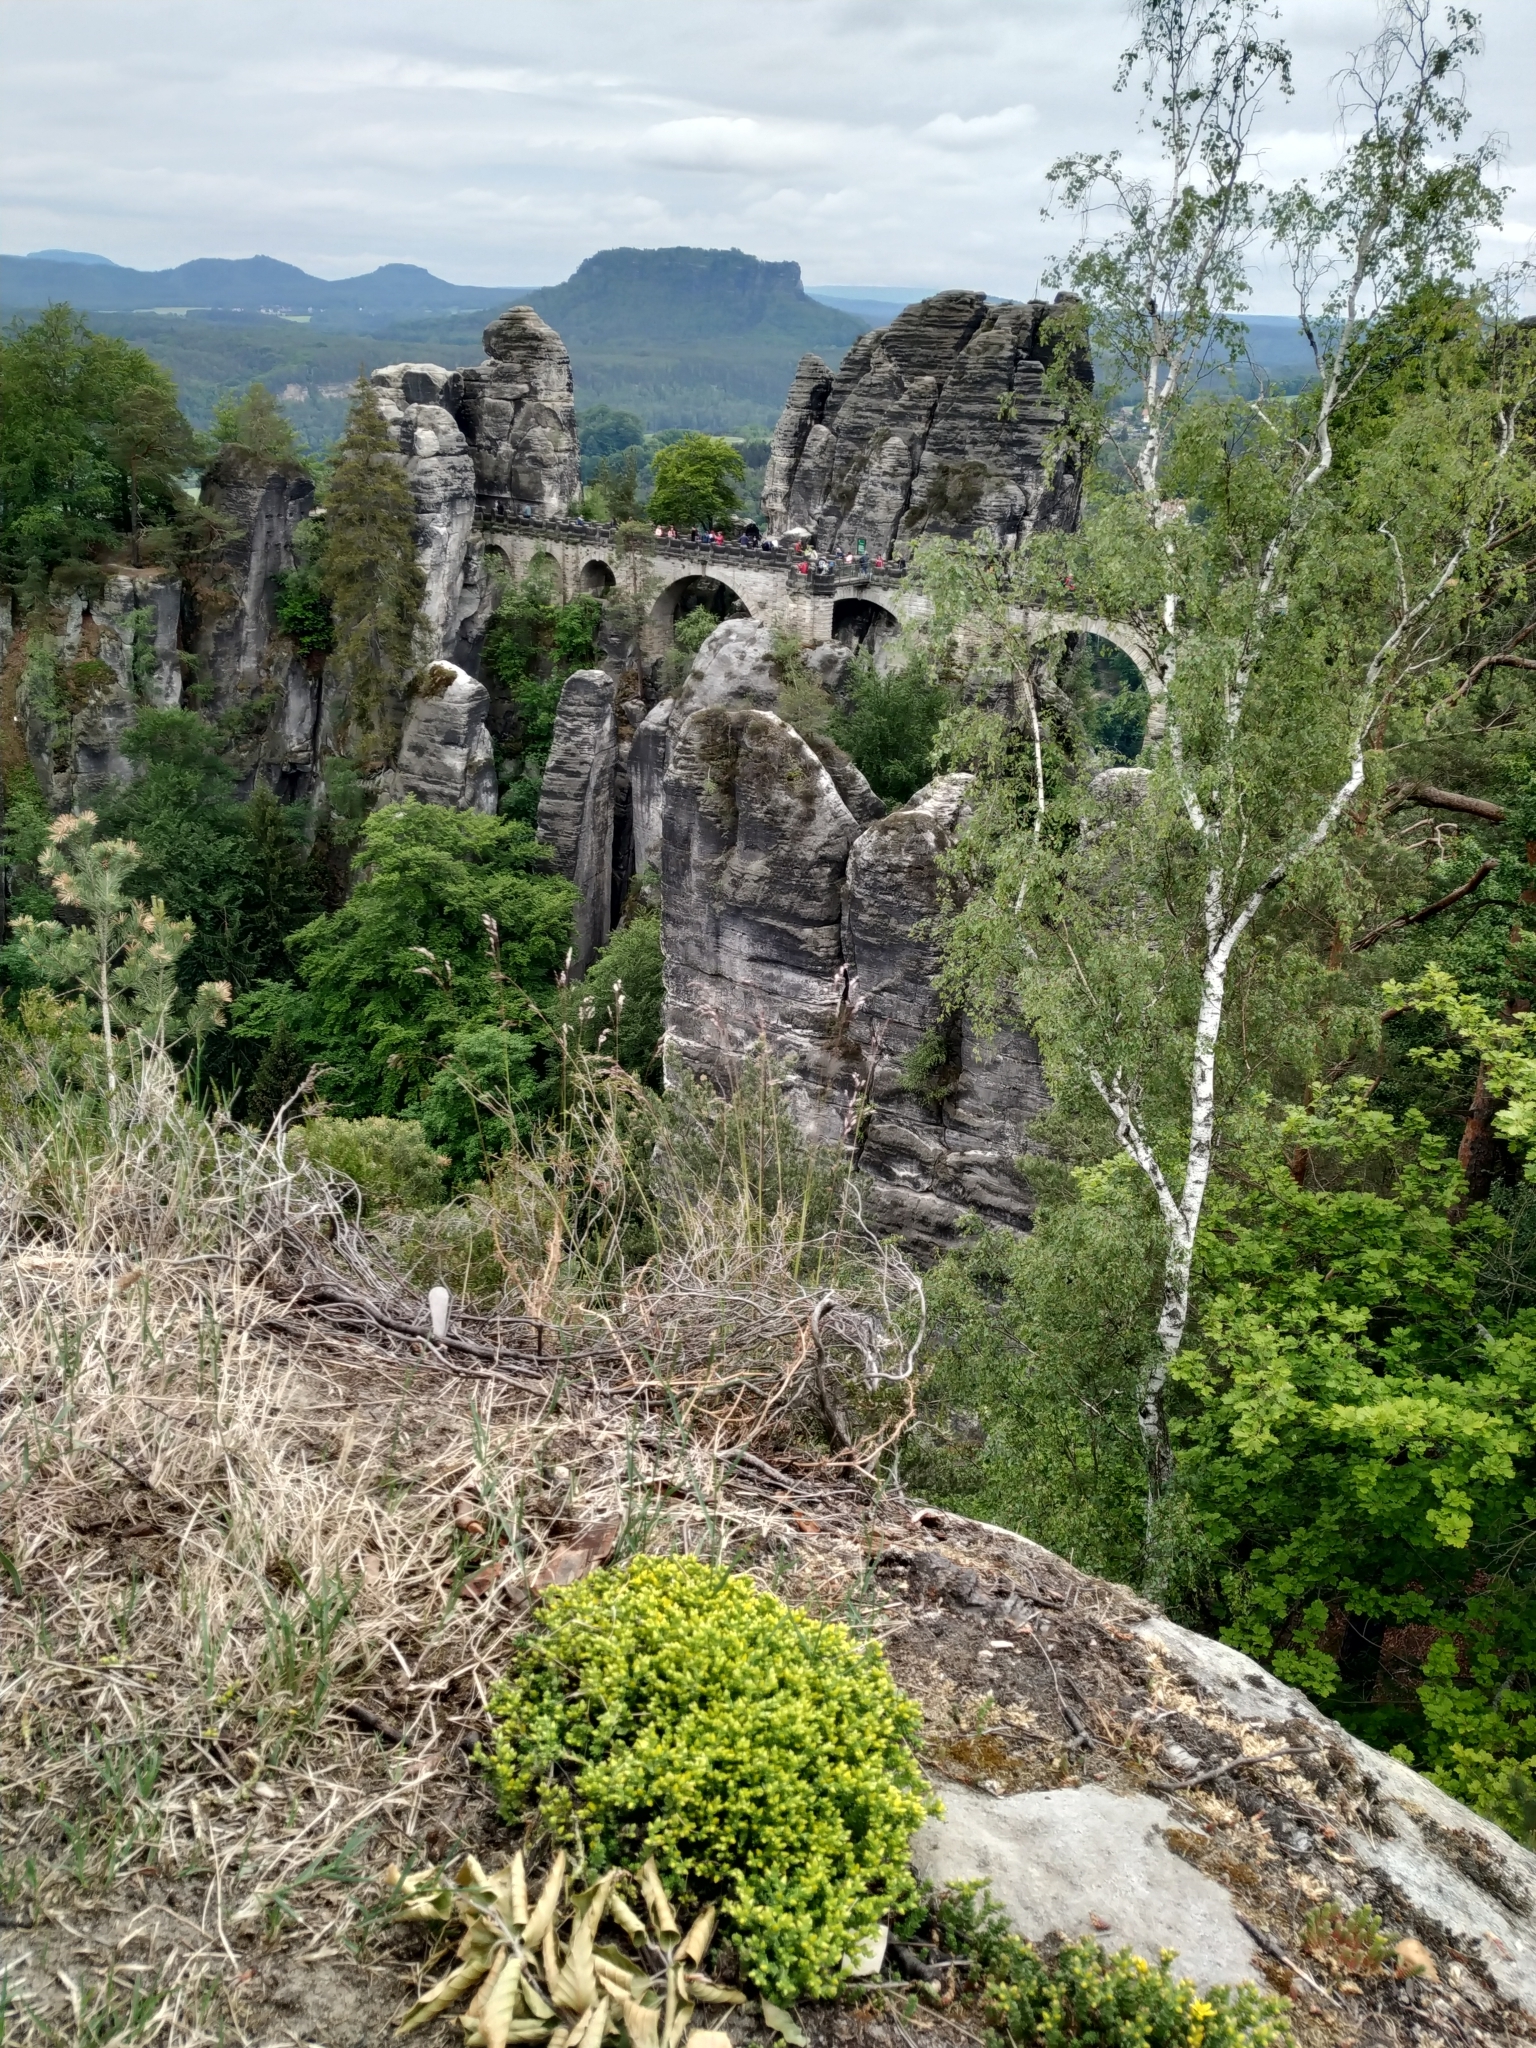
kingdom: Plantae
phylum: Tracheophyta
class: Magnoliopsida
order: Fagales
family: Betulaceae
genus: Betula
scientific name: Betula pendula
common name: Silver birch
